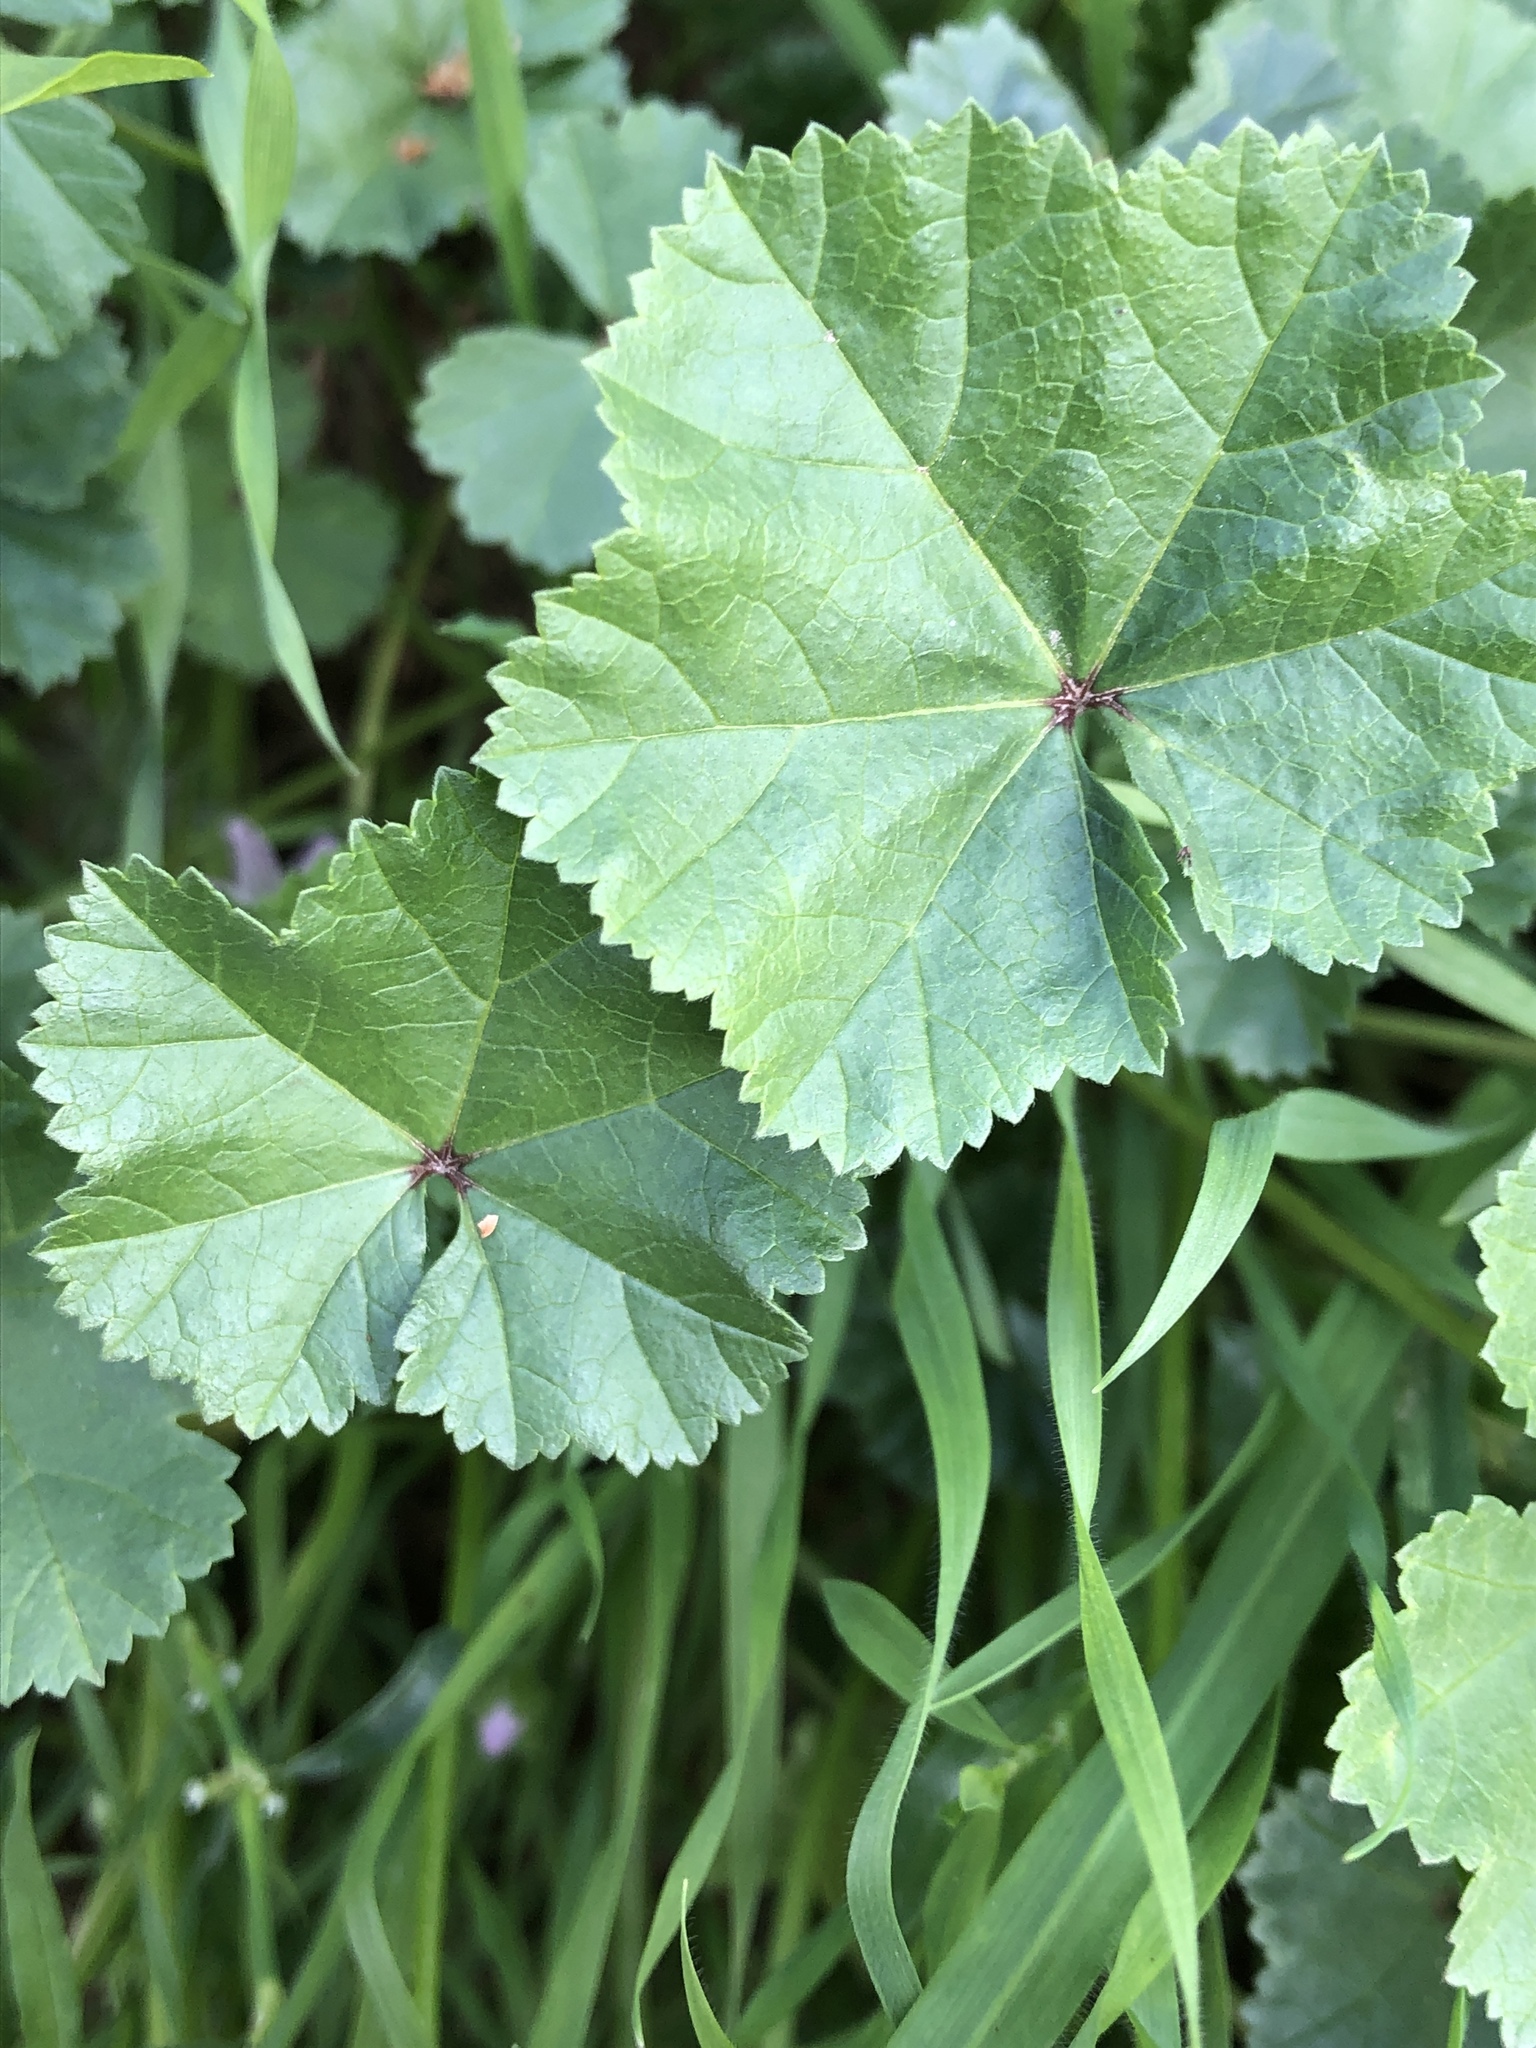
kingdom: Plantae
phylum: Tracheophyta
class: Magnoliopsida
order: Malvales
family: Malvaceae
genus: Malva
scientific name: Malva neglecta
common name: Common mallow
